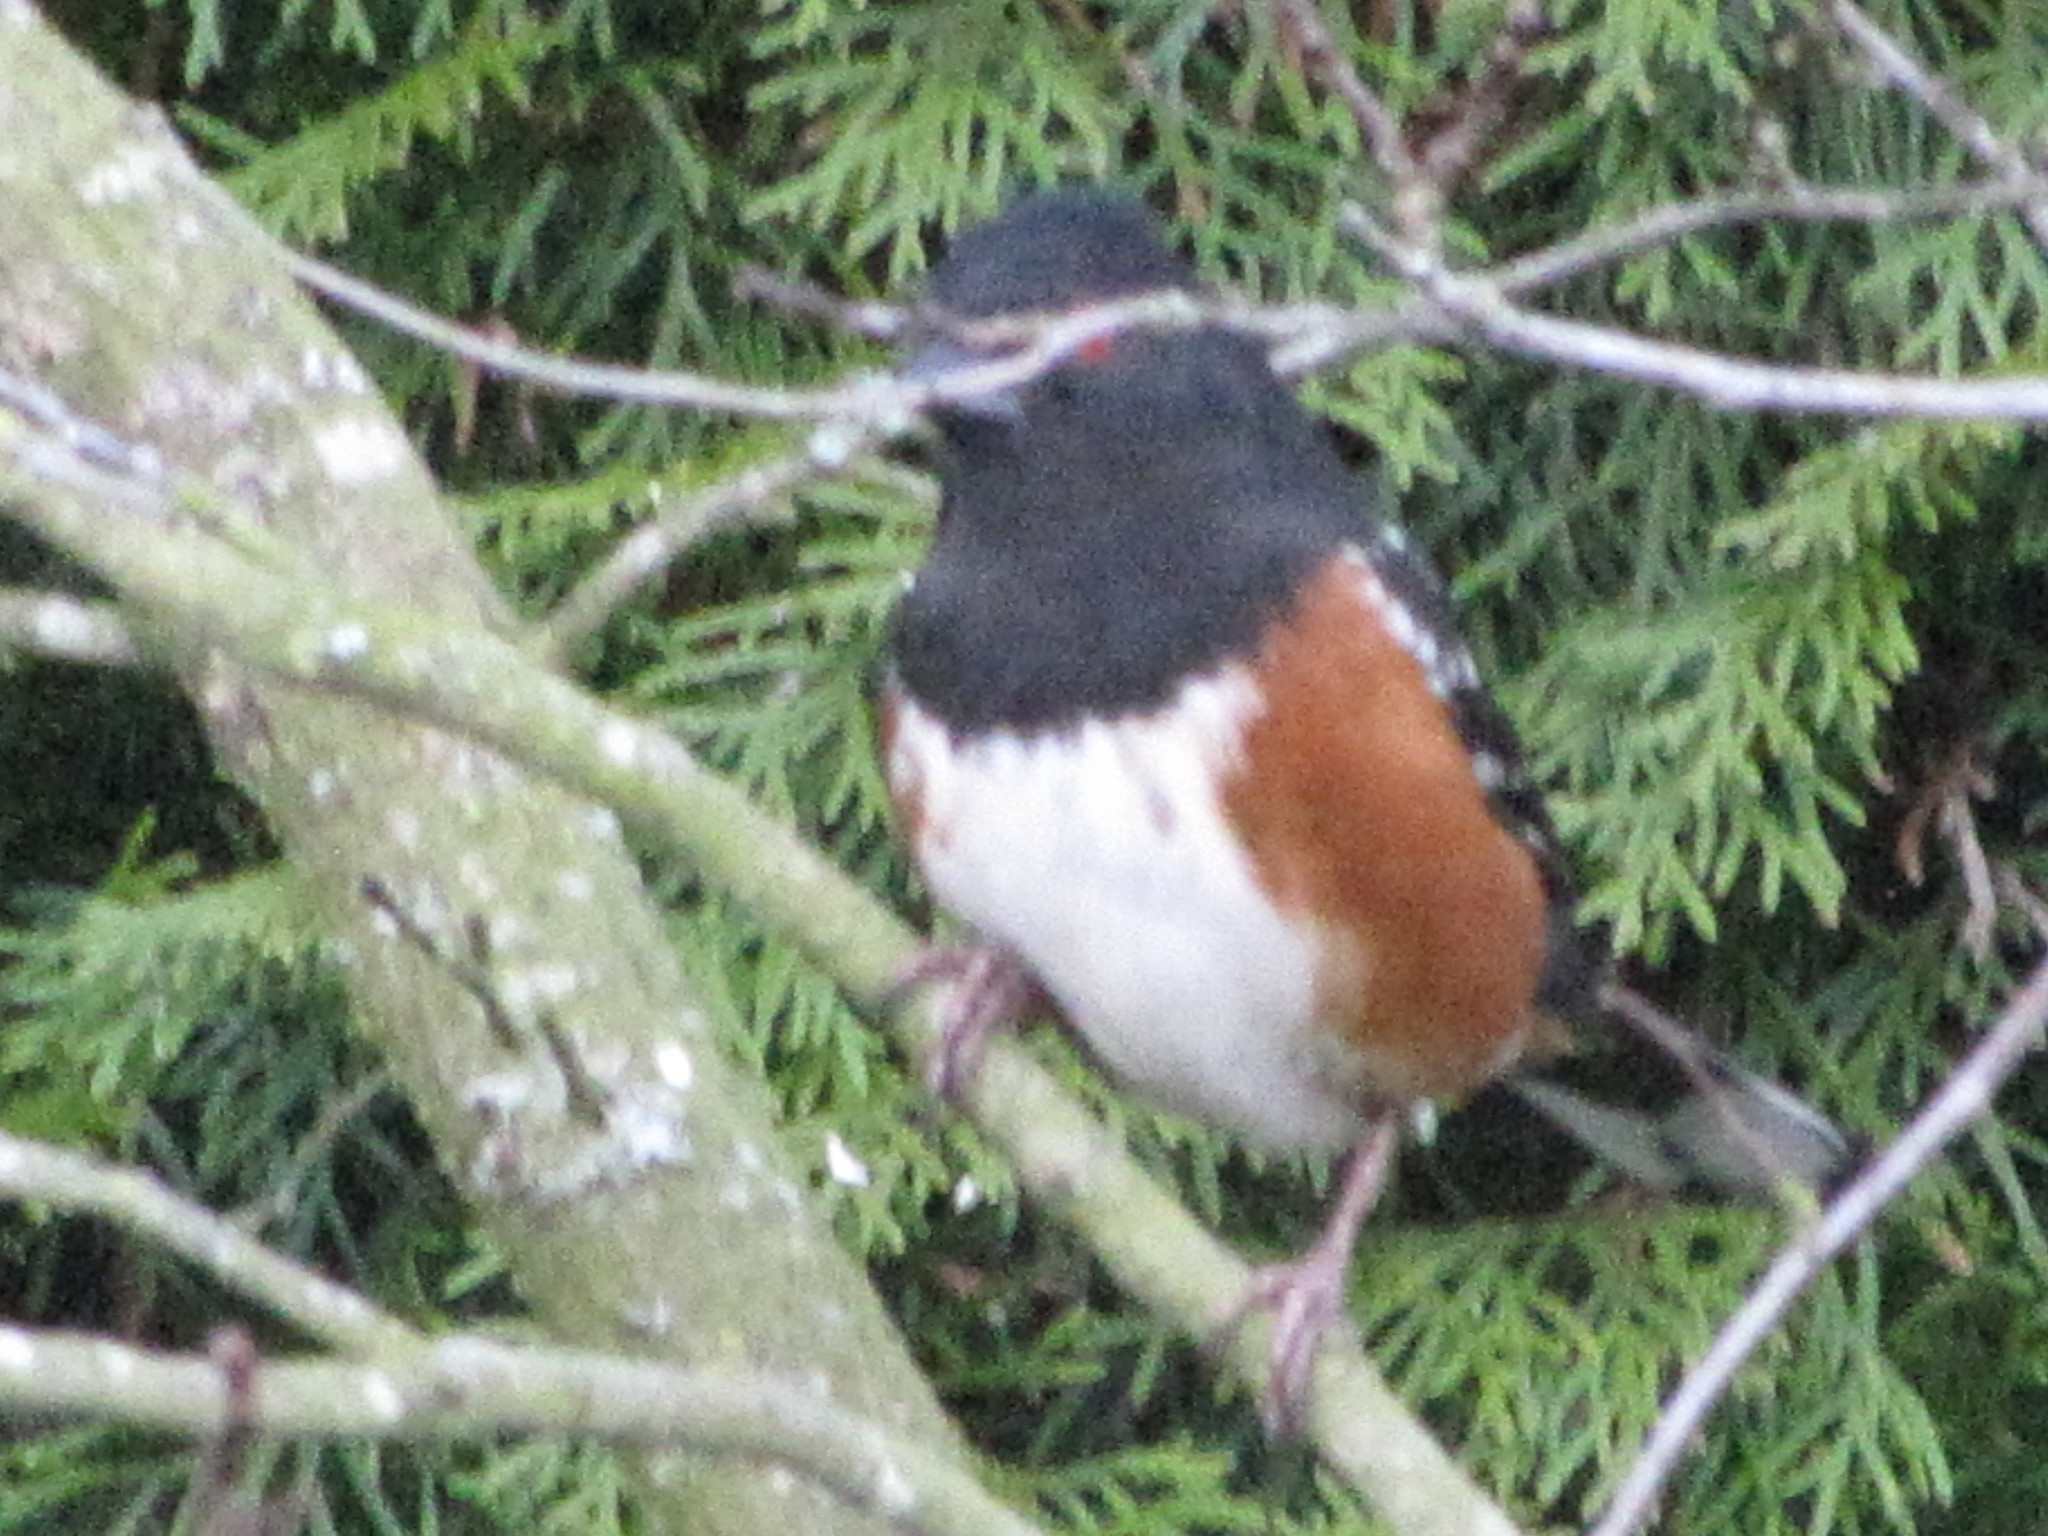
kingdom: Animalia
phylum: Chordata
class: Aves
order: Passeriformes
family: Passerellidae
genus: Pipilo
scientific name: Pipilo maculatus
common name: Spotted towhee
